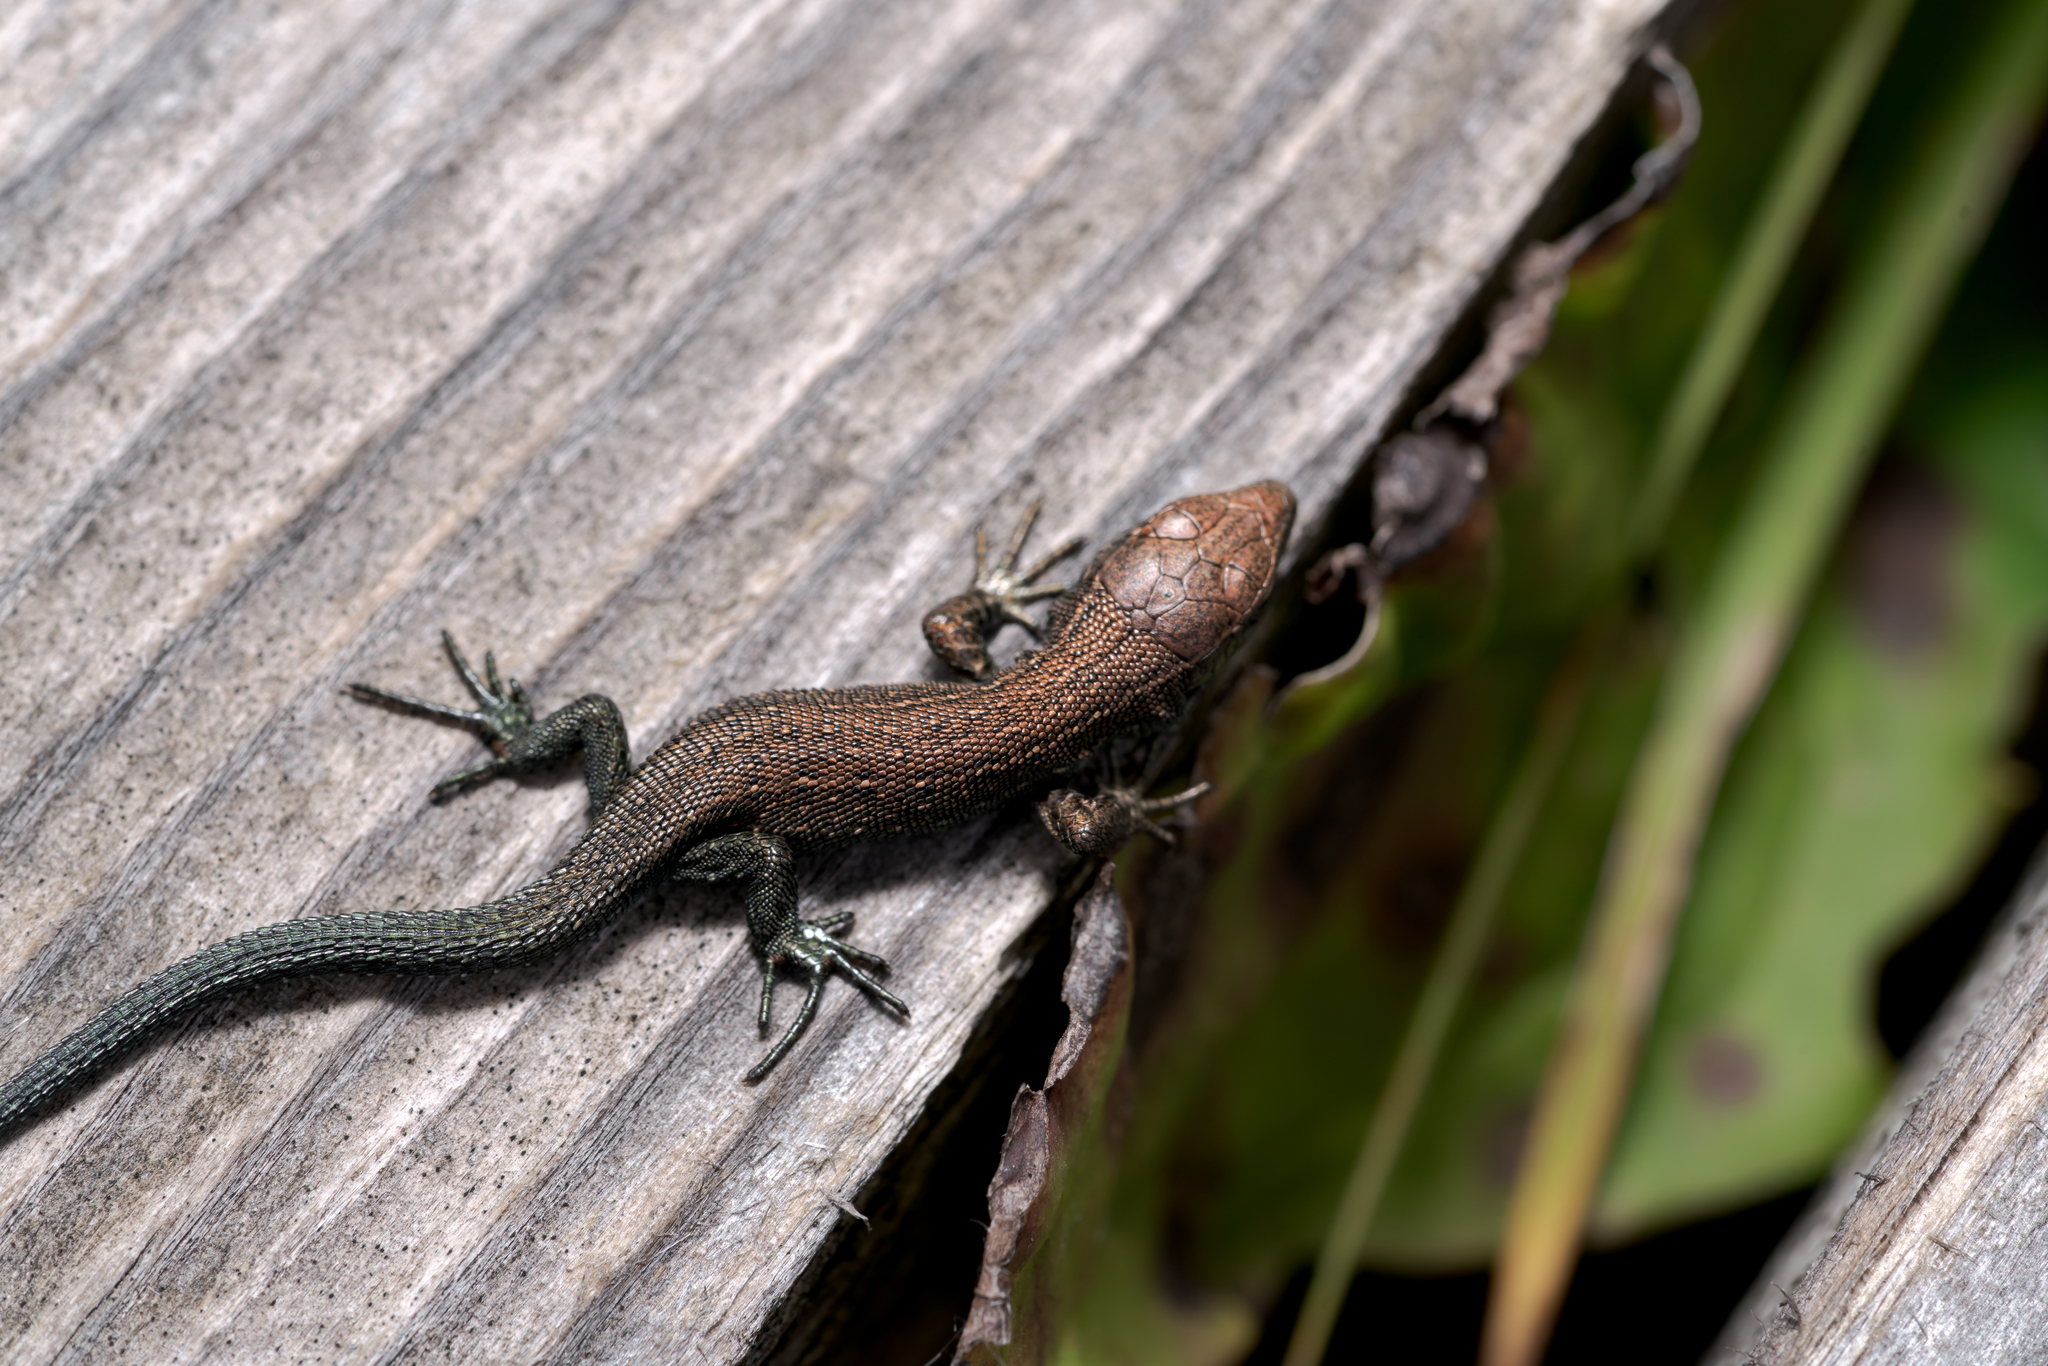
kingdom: Animalia
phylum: Chordata
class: Squamata
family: Lacertidae
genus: Zootoca
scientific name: Zootoca vivipara
